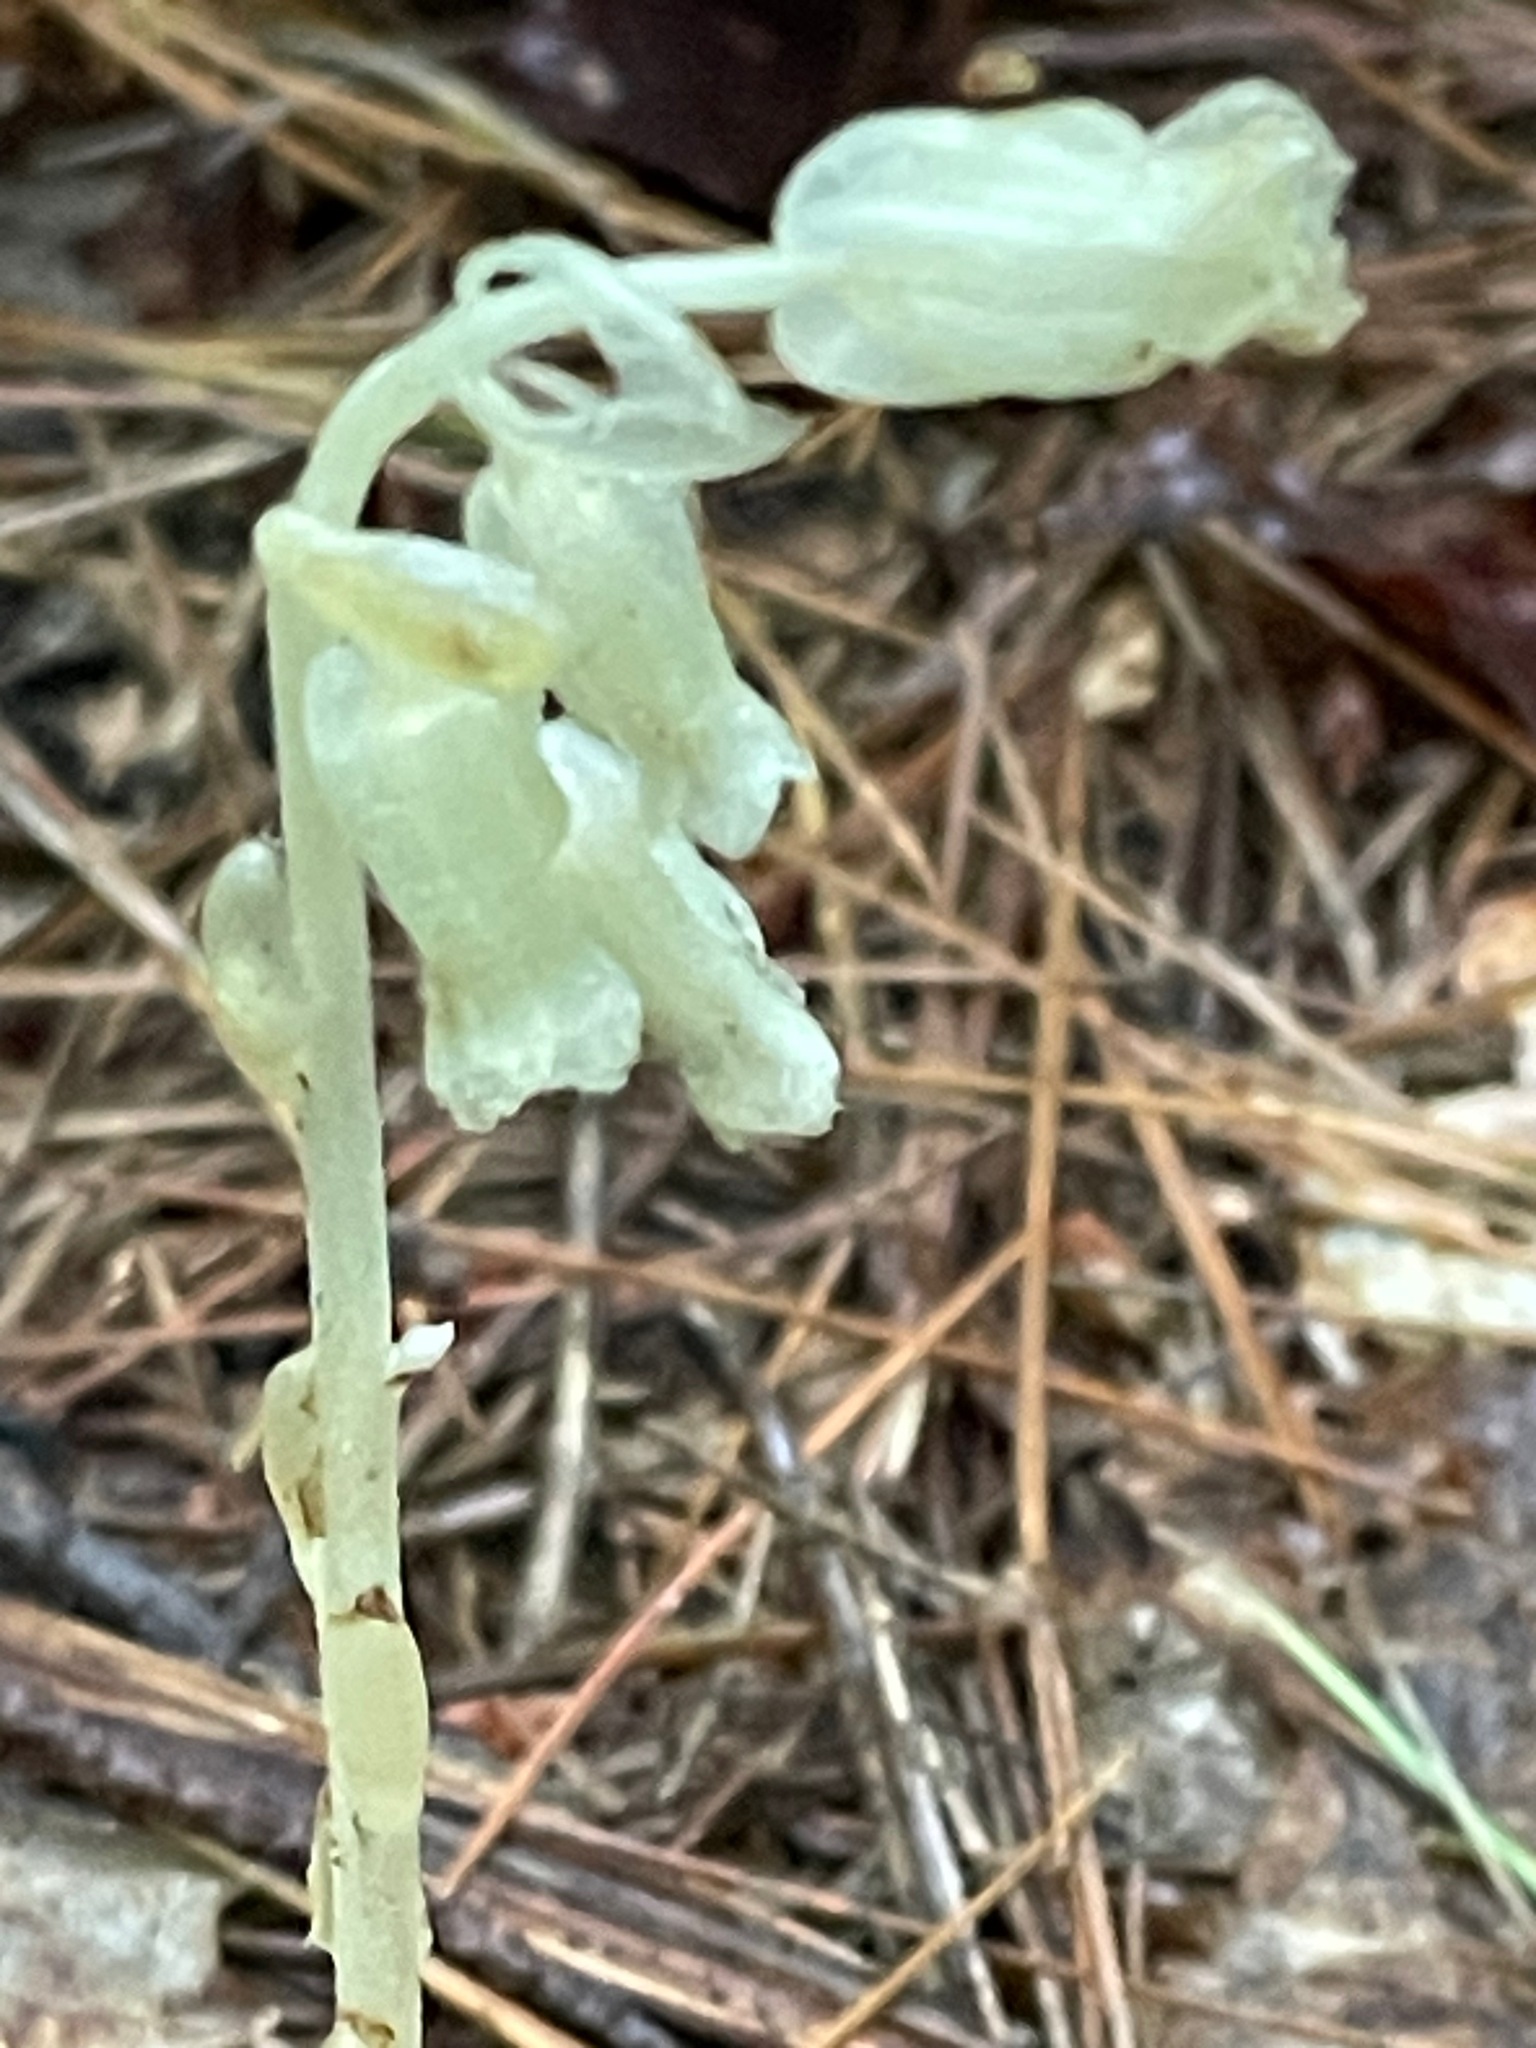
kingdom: Plantae
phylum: Tracheophyta
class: Magnoliopsida
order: Ericales
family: Ericaceae
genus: Hypopitys
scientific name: Hypopitys monotropa
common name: Yellow bird's-nest
